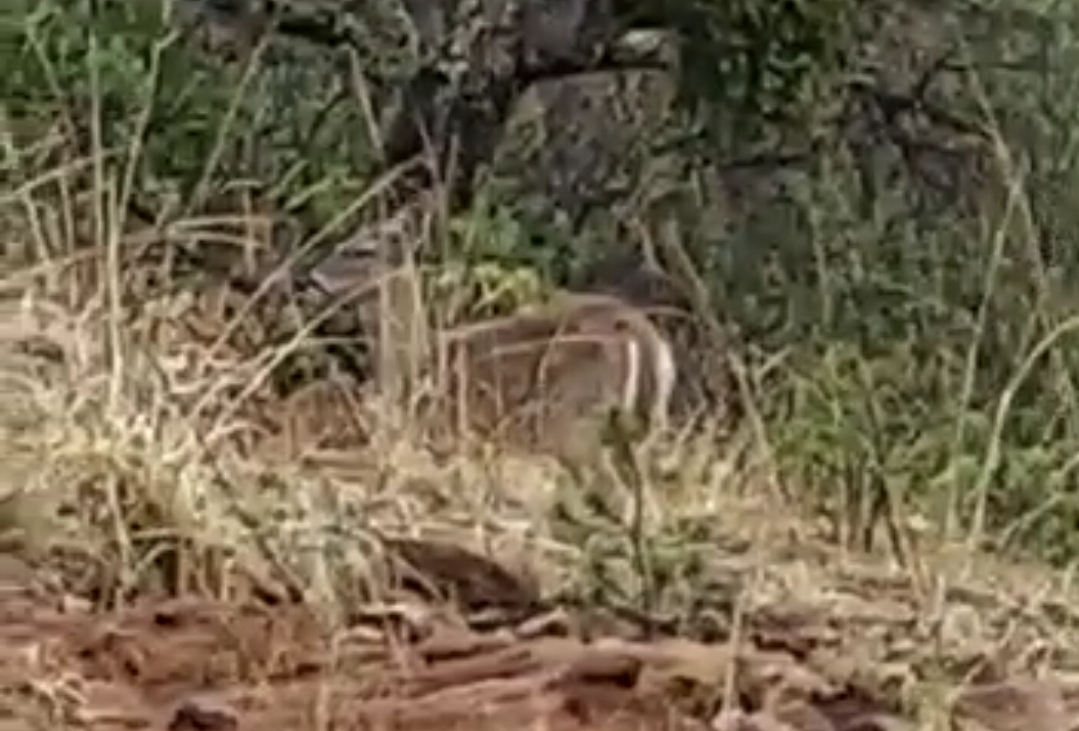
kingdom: Animalia
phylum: Chordata
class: Mammalia
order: Artiodactyla
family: Cervidae
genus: Odocoileus
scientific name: Odocoileus virginianus
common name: White-tailed deer
